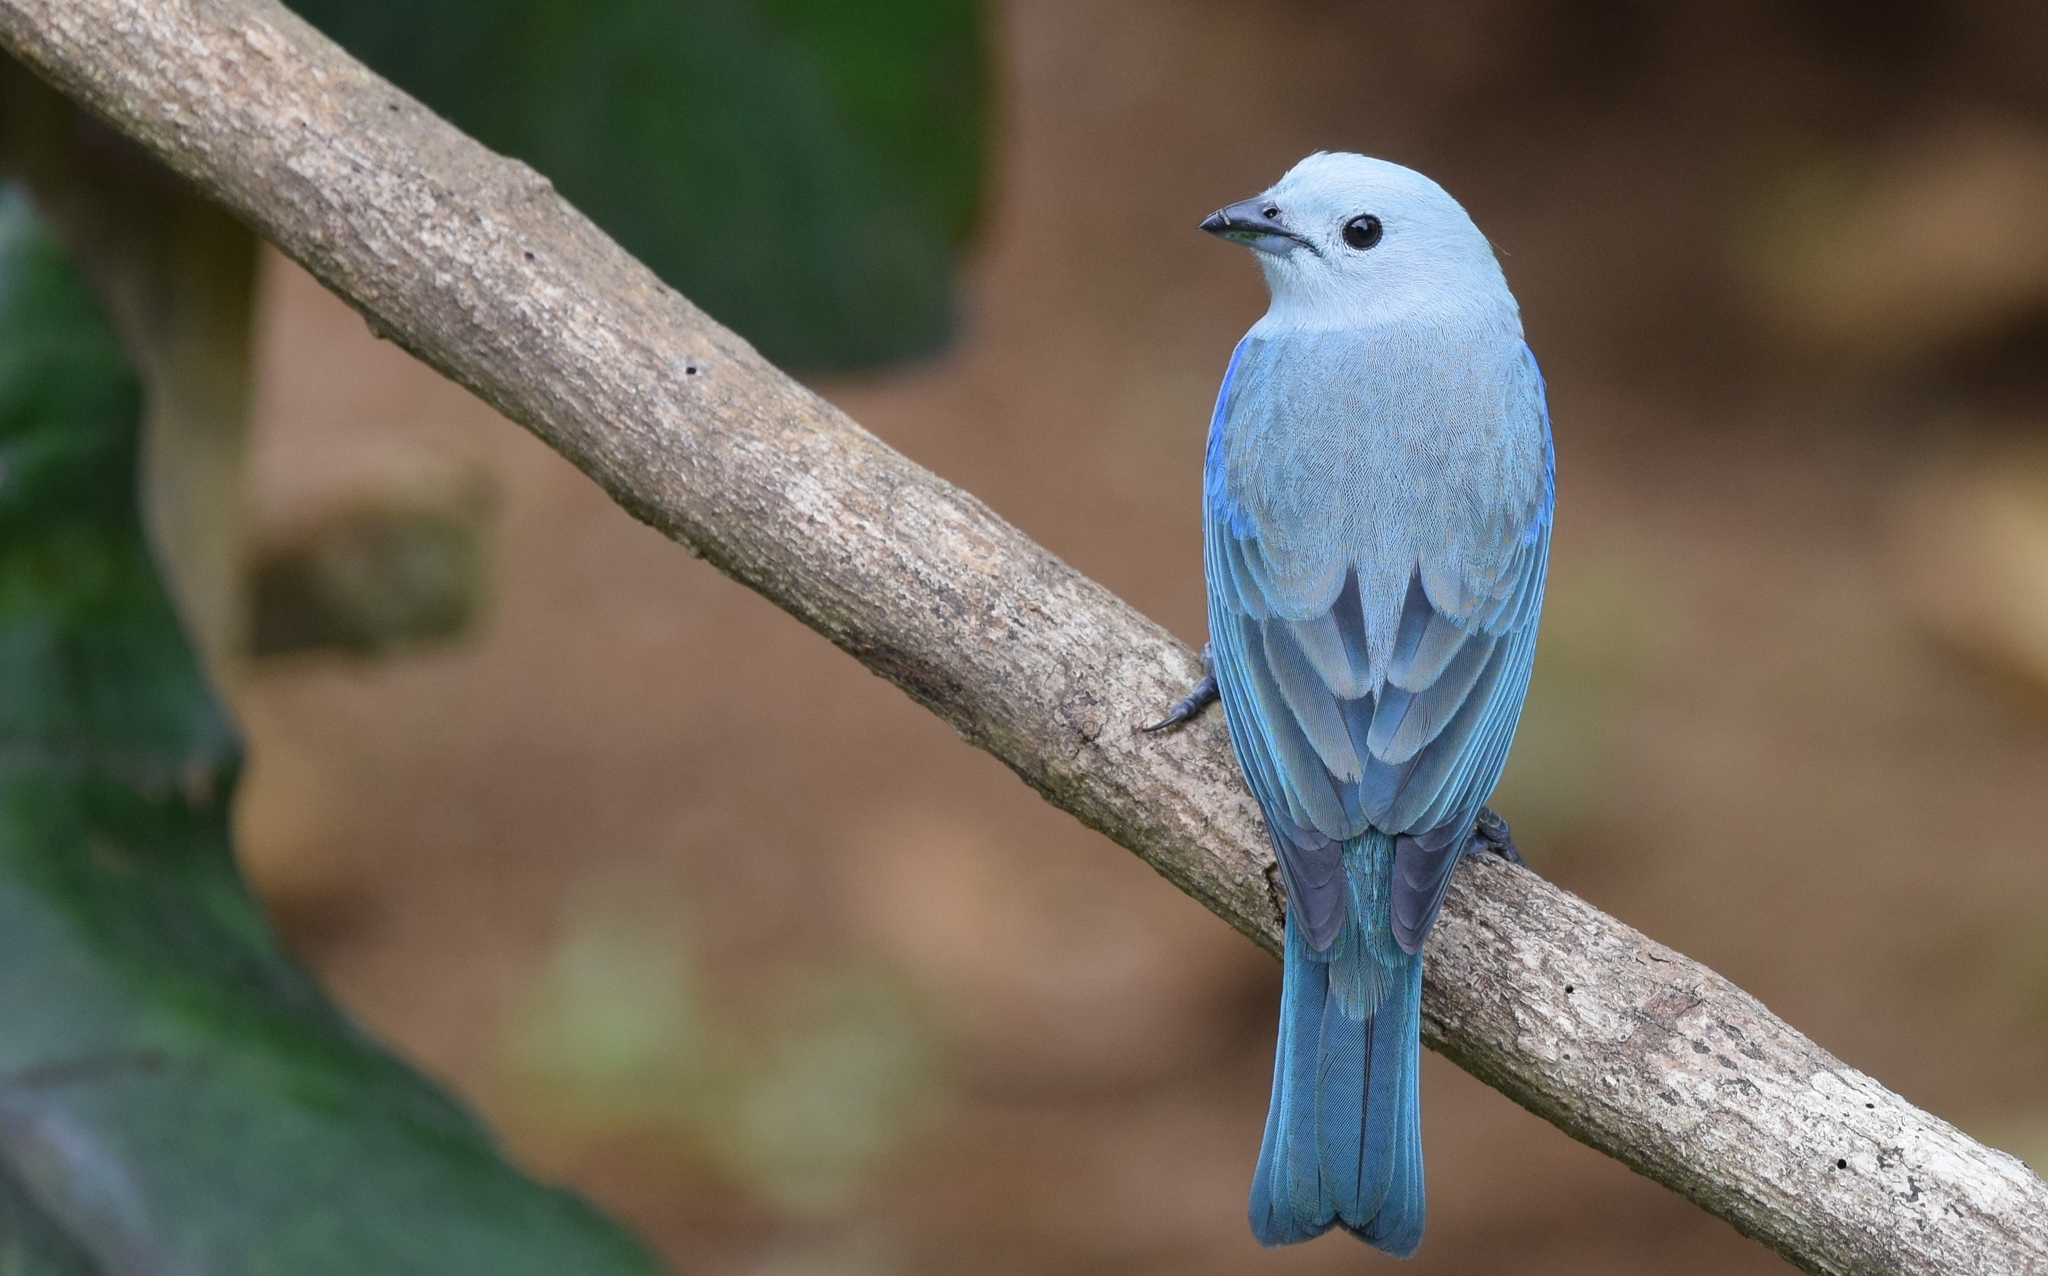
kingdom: Animalia
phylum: Chordata
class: Aves
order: Passeriformes
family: Thraupidae
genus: Thraupis
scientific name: Thraupis episcopus
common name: Blue-grey tanager
